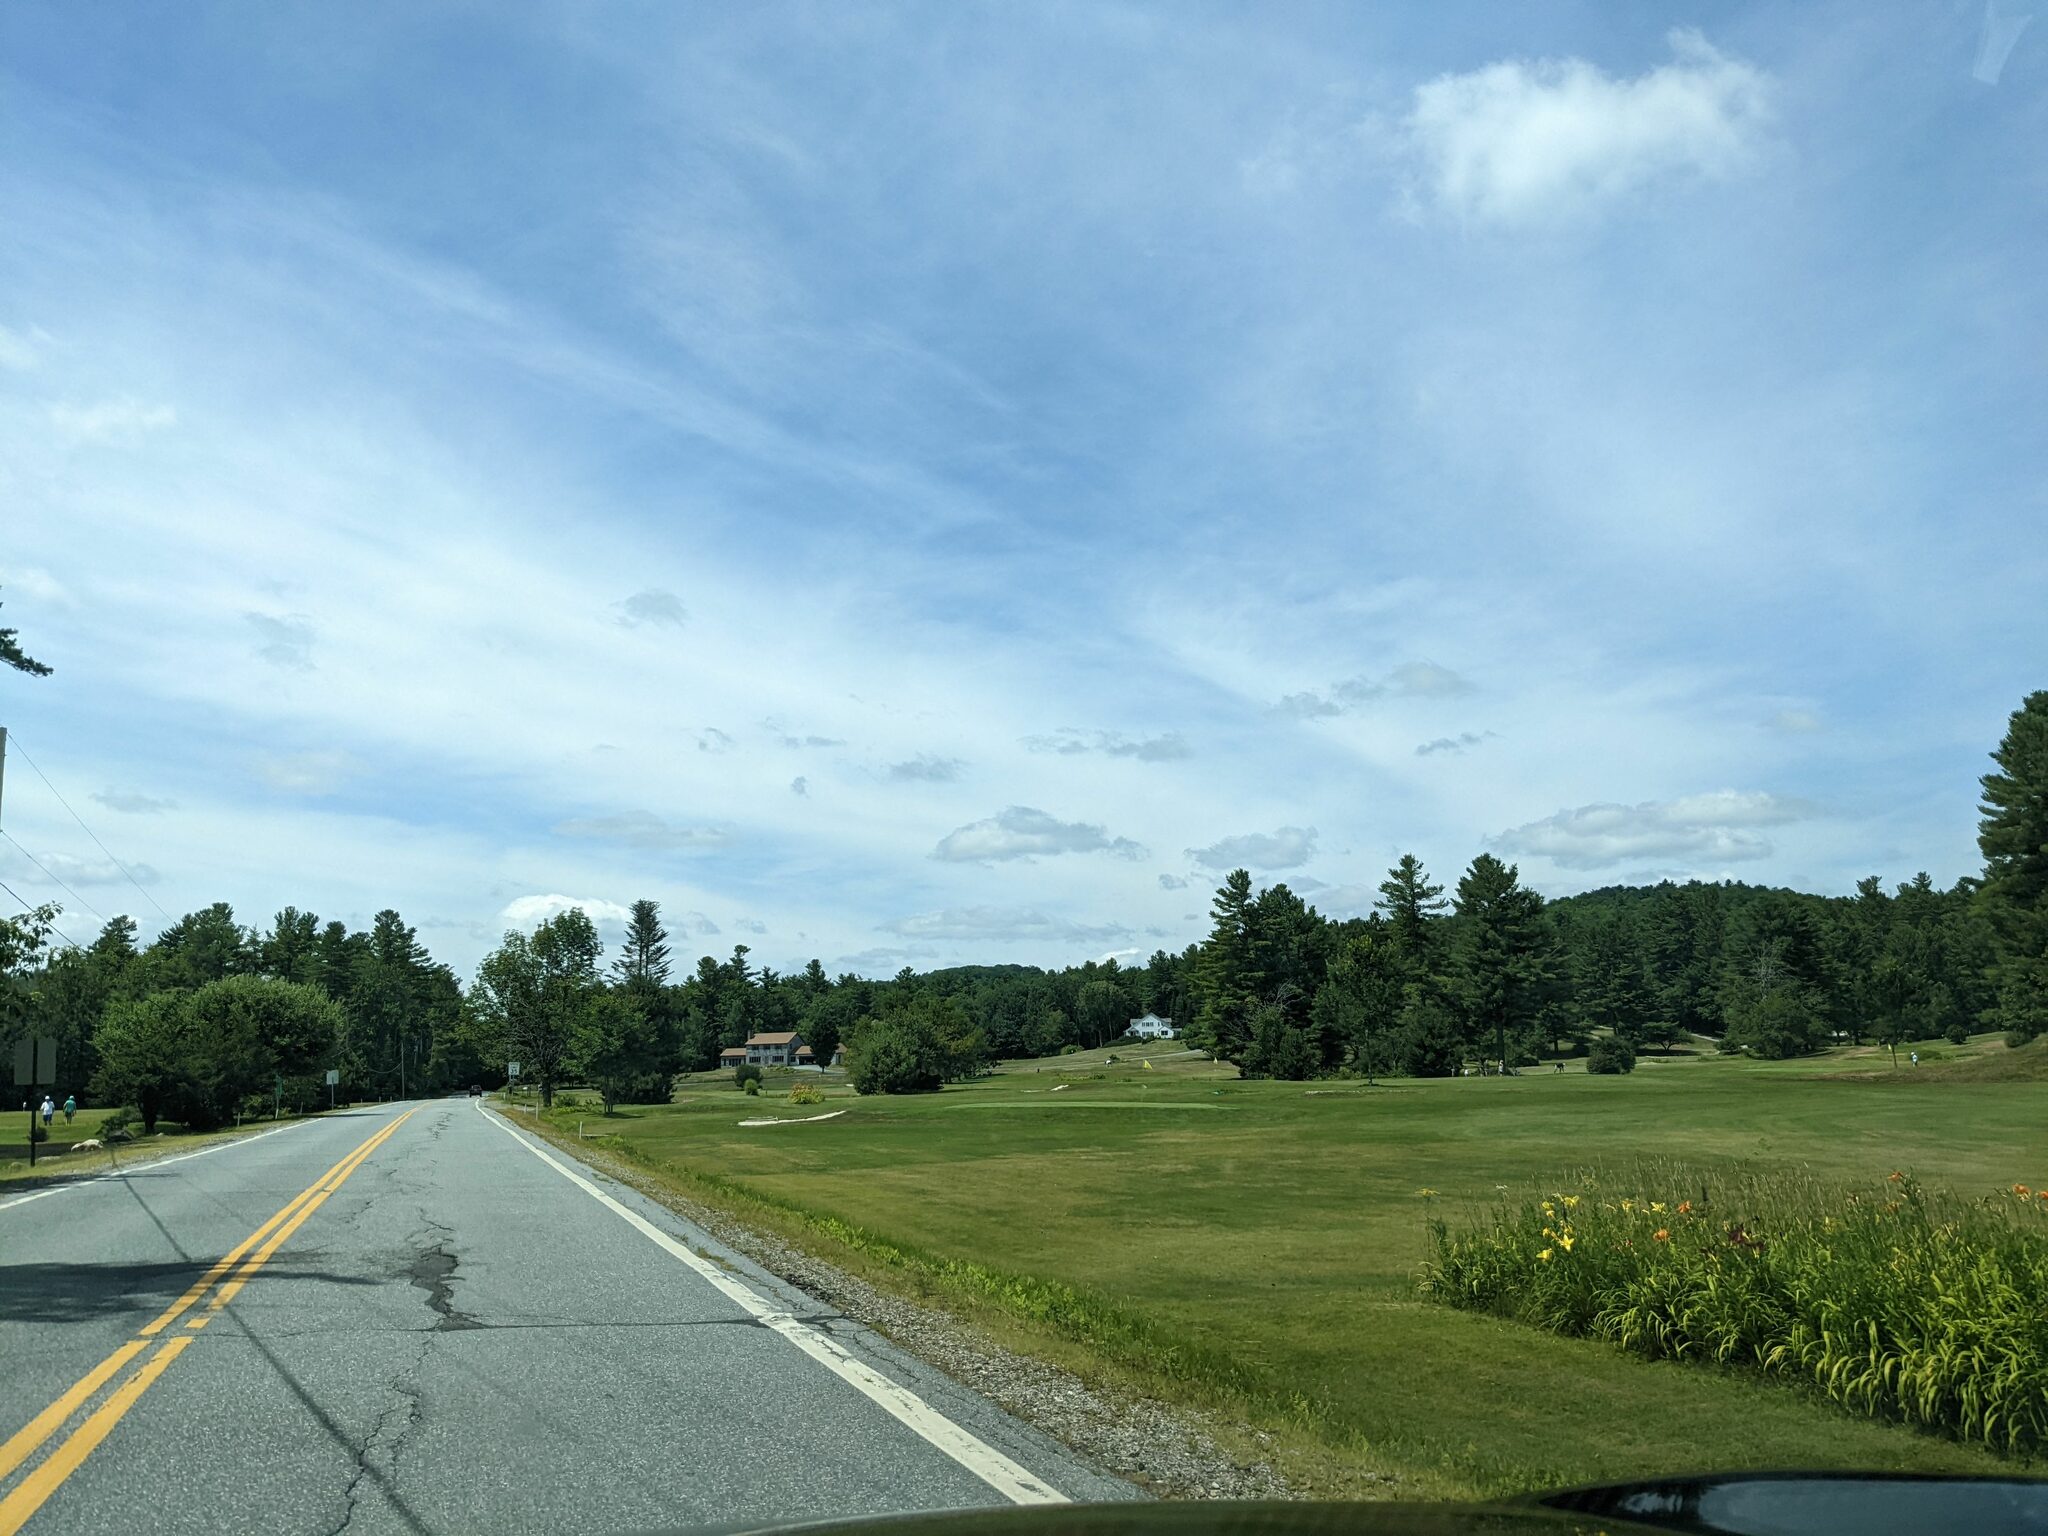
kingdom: Plantae
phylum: Tracheophyta
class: Pinopsida
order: Pinales
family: Pinaceae
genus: Pinus
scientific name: Pinus strobus
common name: Weymouth pine
